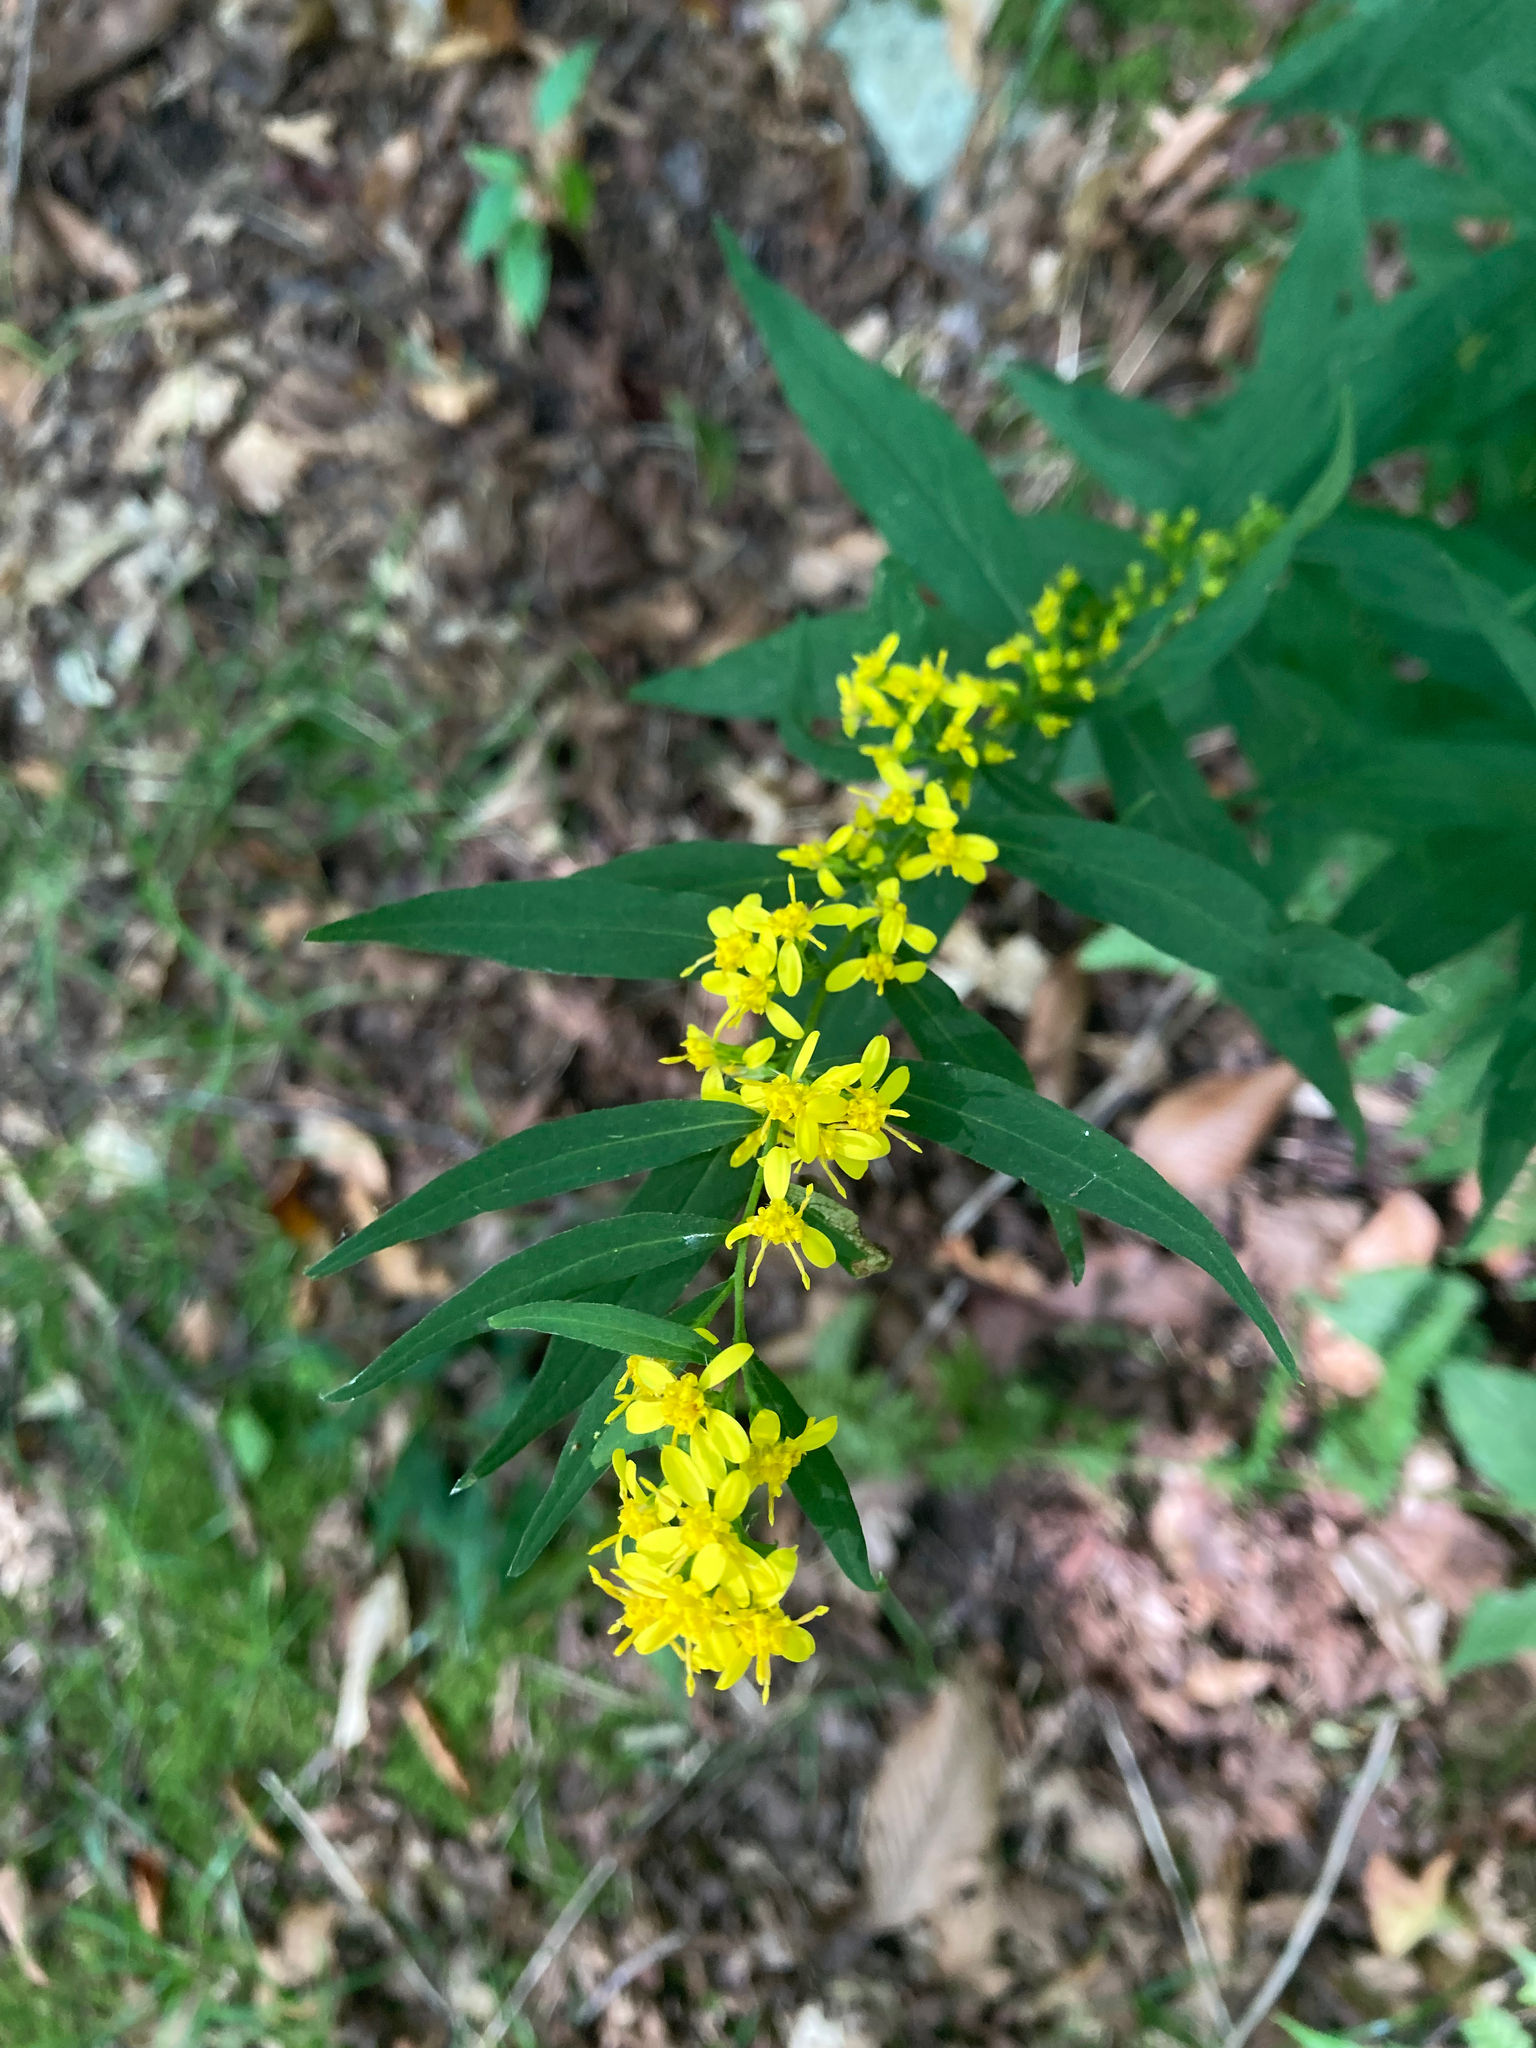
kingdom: Plantae
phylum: Tracheophyta
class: Magnoliopsida
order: Asterales
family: Asteraceae
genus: Solidago
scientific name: Solidago caesia
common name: Woodland goldenrod
